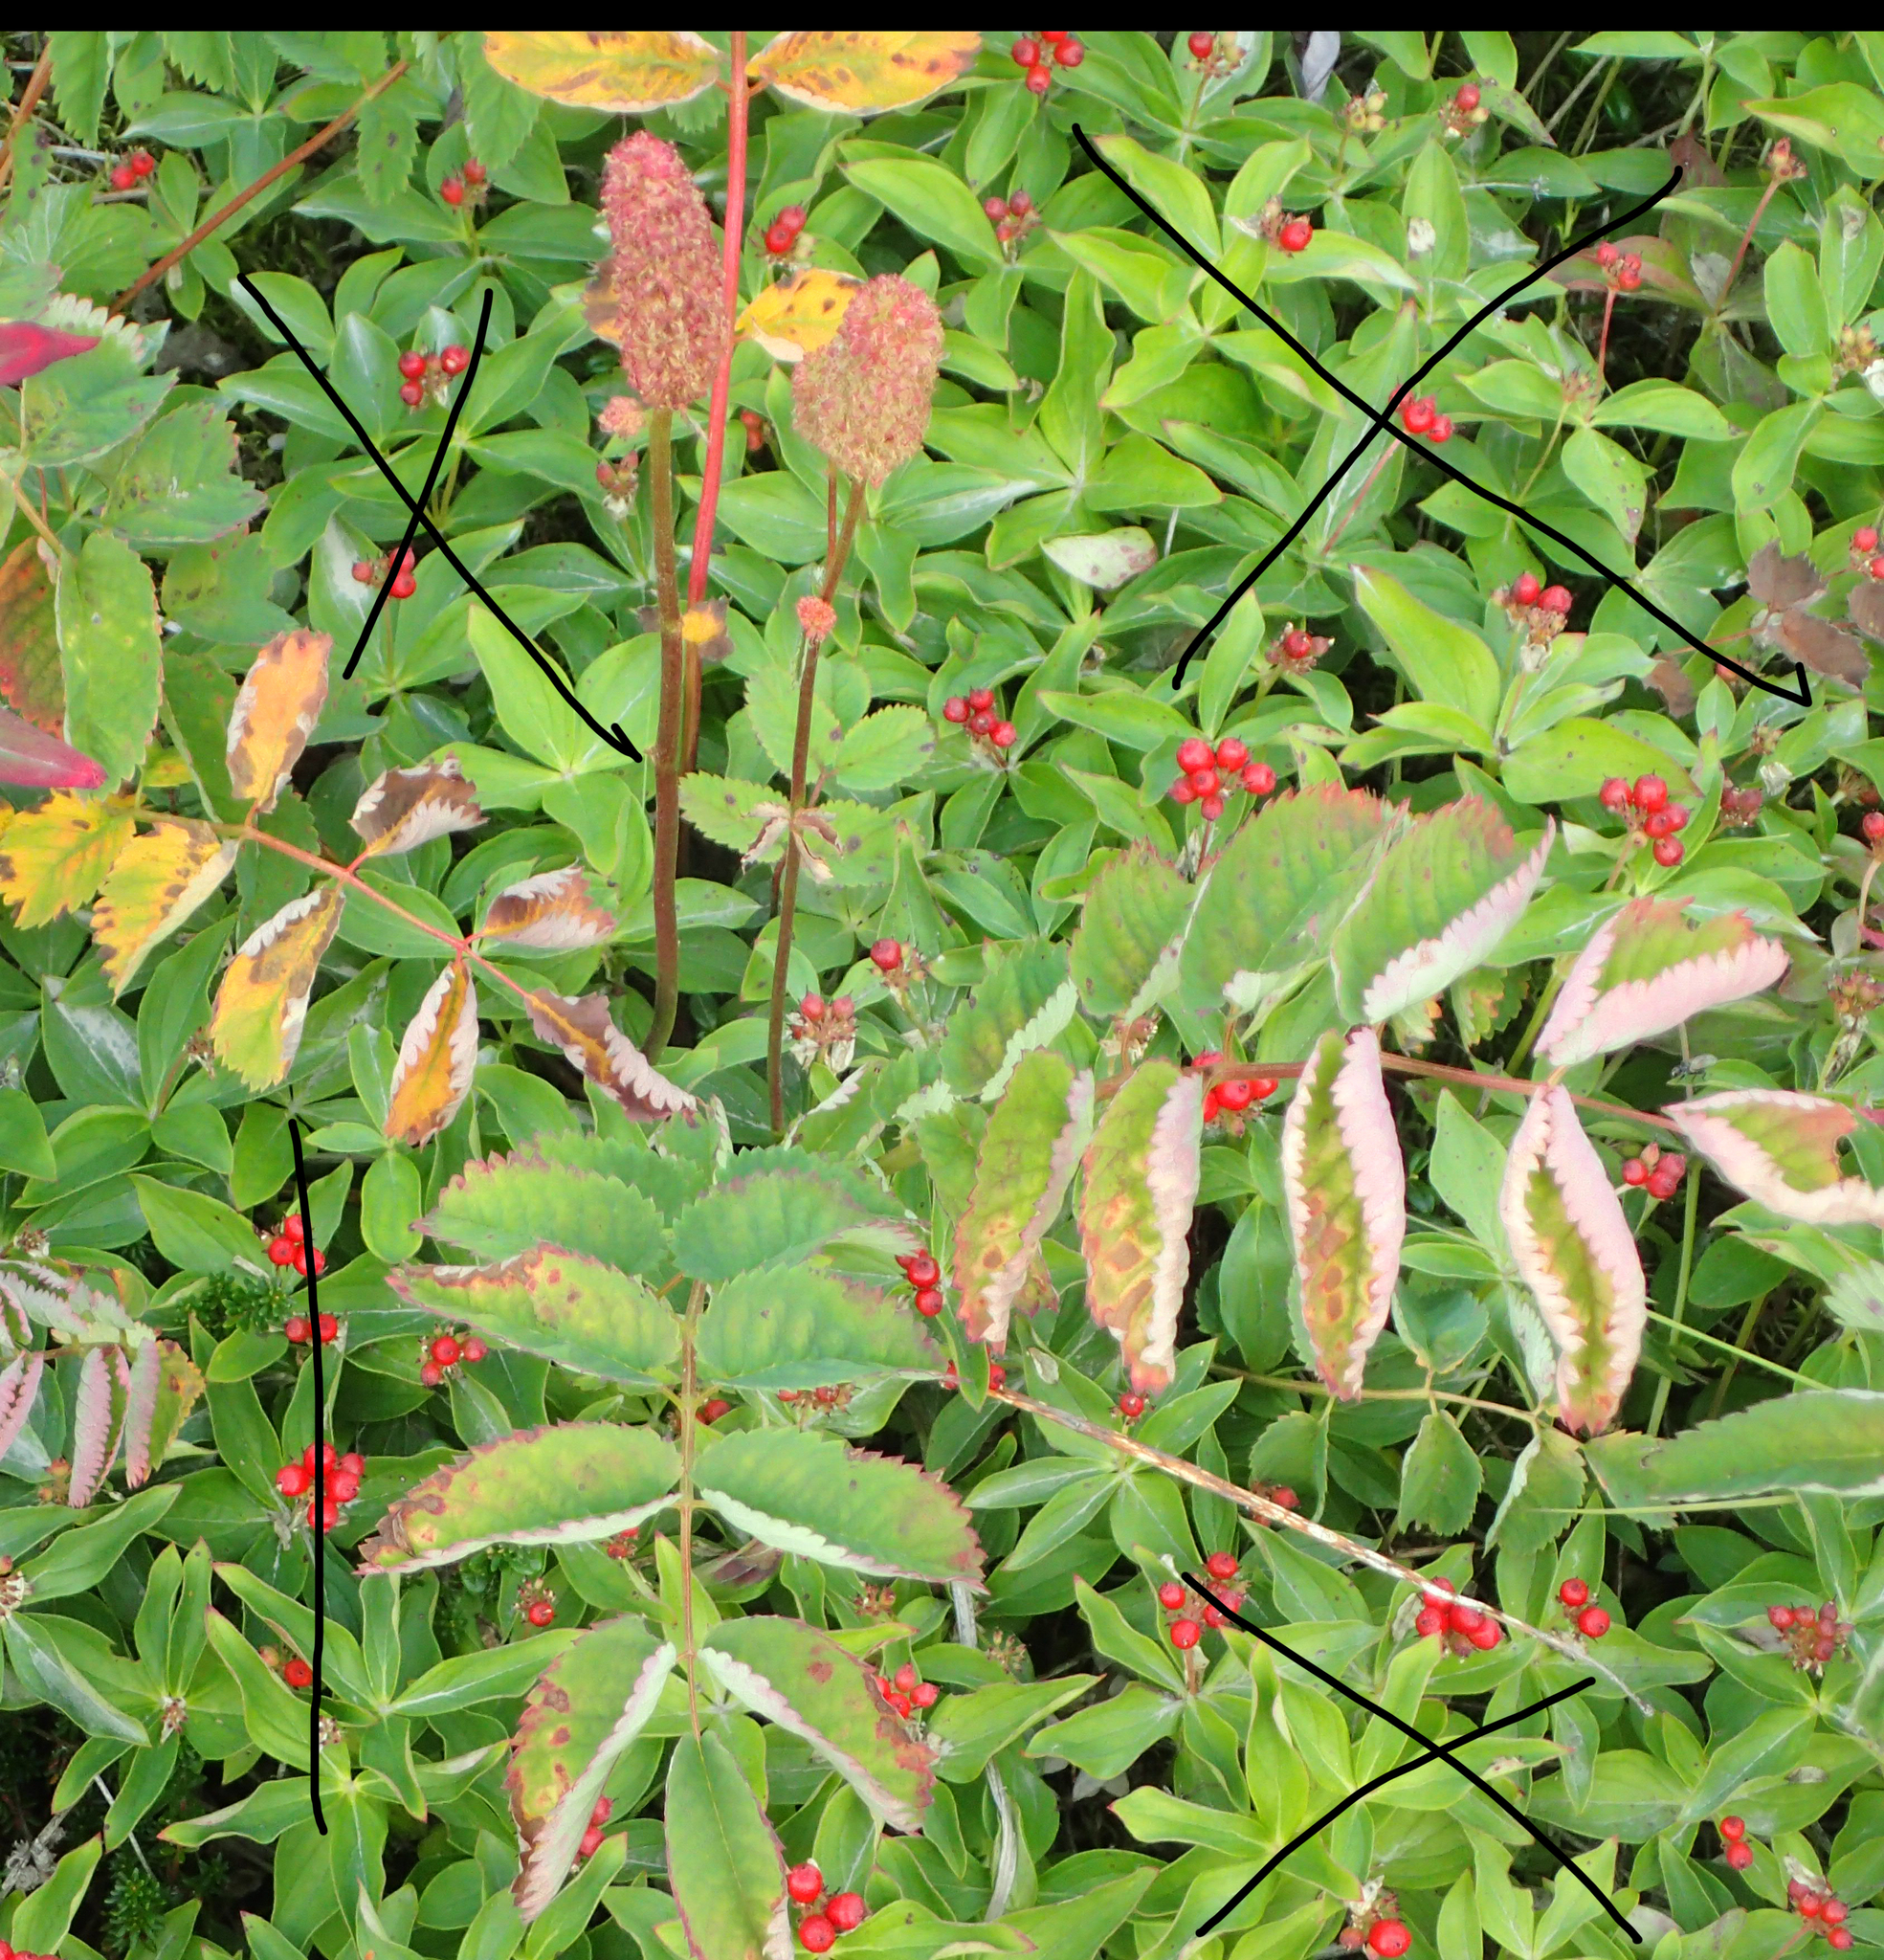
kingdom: Plantae
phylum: Tracheophyta
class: Magnoliopsida
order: Rosales
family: Rosaceae
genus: Sanguisorba
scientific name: Sanguisorba stipulata
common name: Sitka burnet
